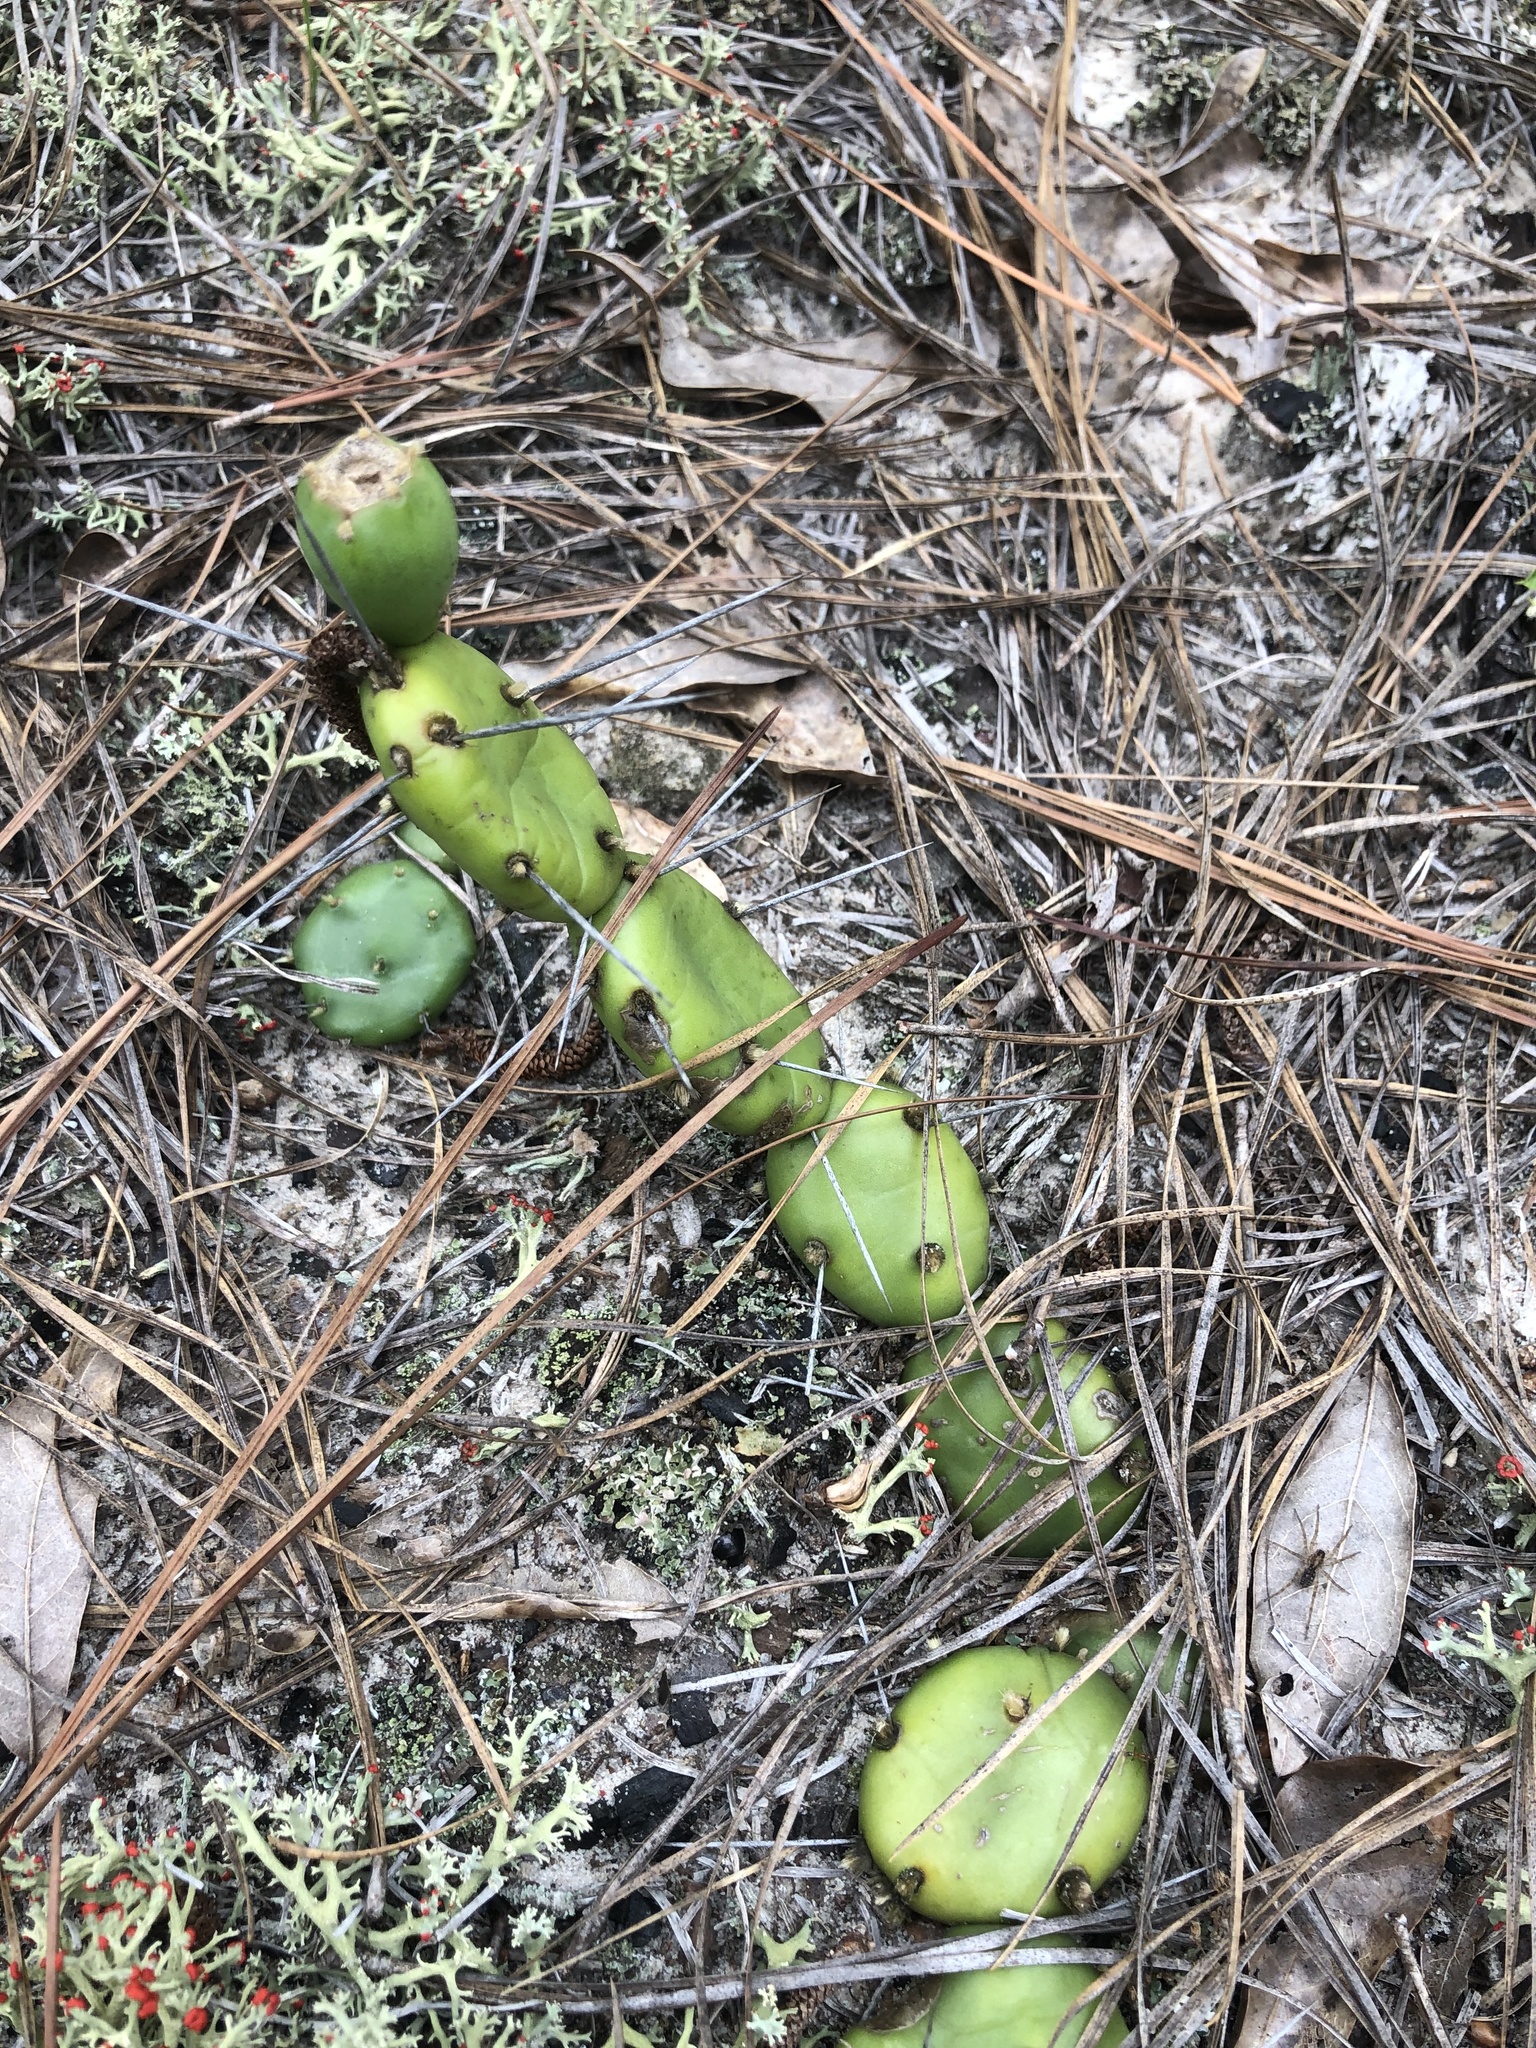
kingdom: Plantae
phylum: Tracheophyta
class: Magnoliopsida
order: Caryophyllales
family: Cactaceae
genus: Opuntia
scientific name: Opuntia drummondii
